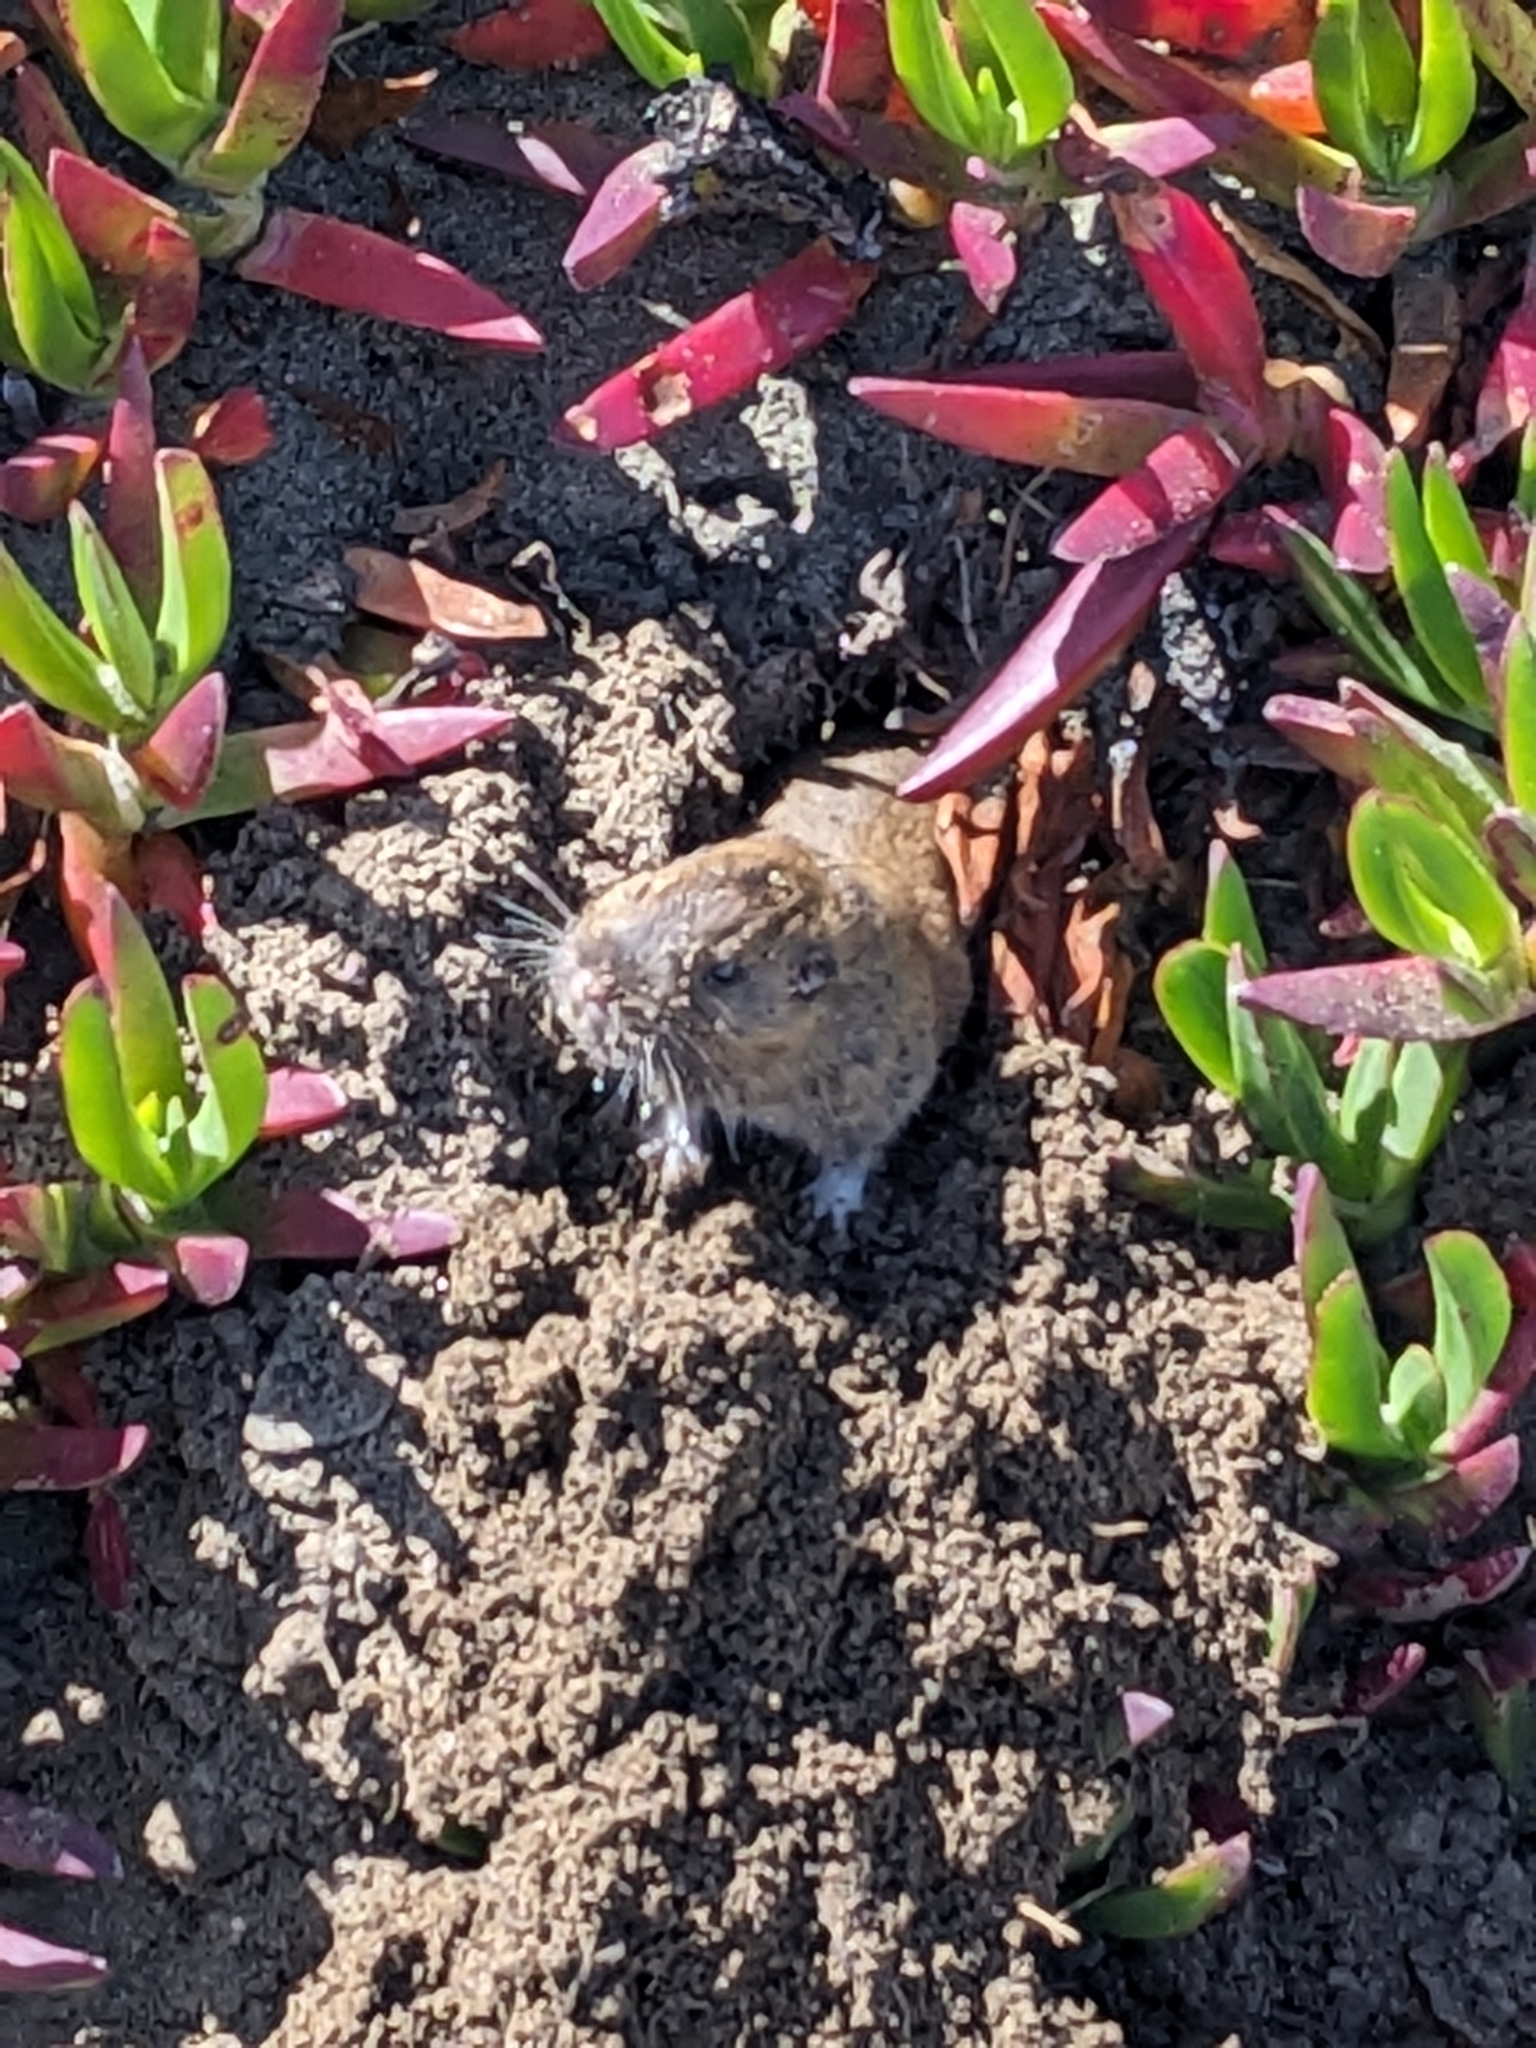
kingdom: Animalia
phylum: Chordata
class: Mammalia
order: Rodentia
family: Geomyidae
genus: Thomomys
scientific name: Thomomys bottae
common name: Botta's pocket gopher
